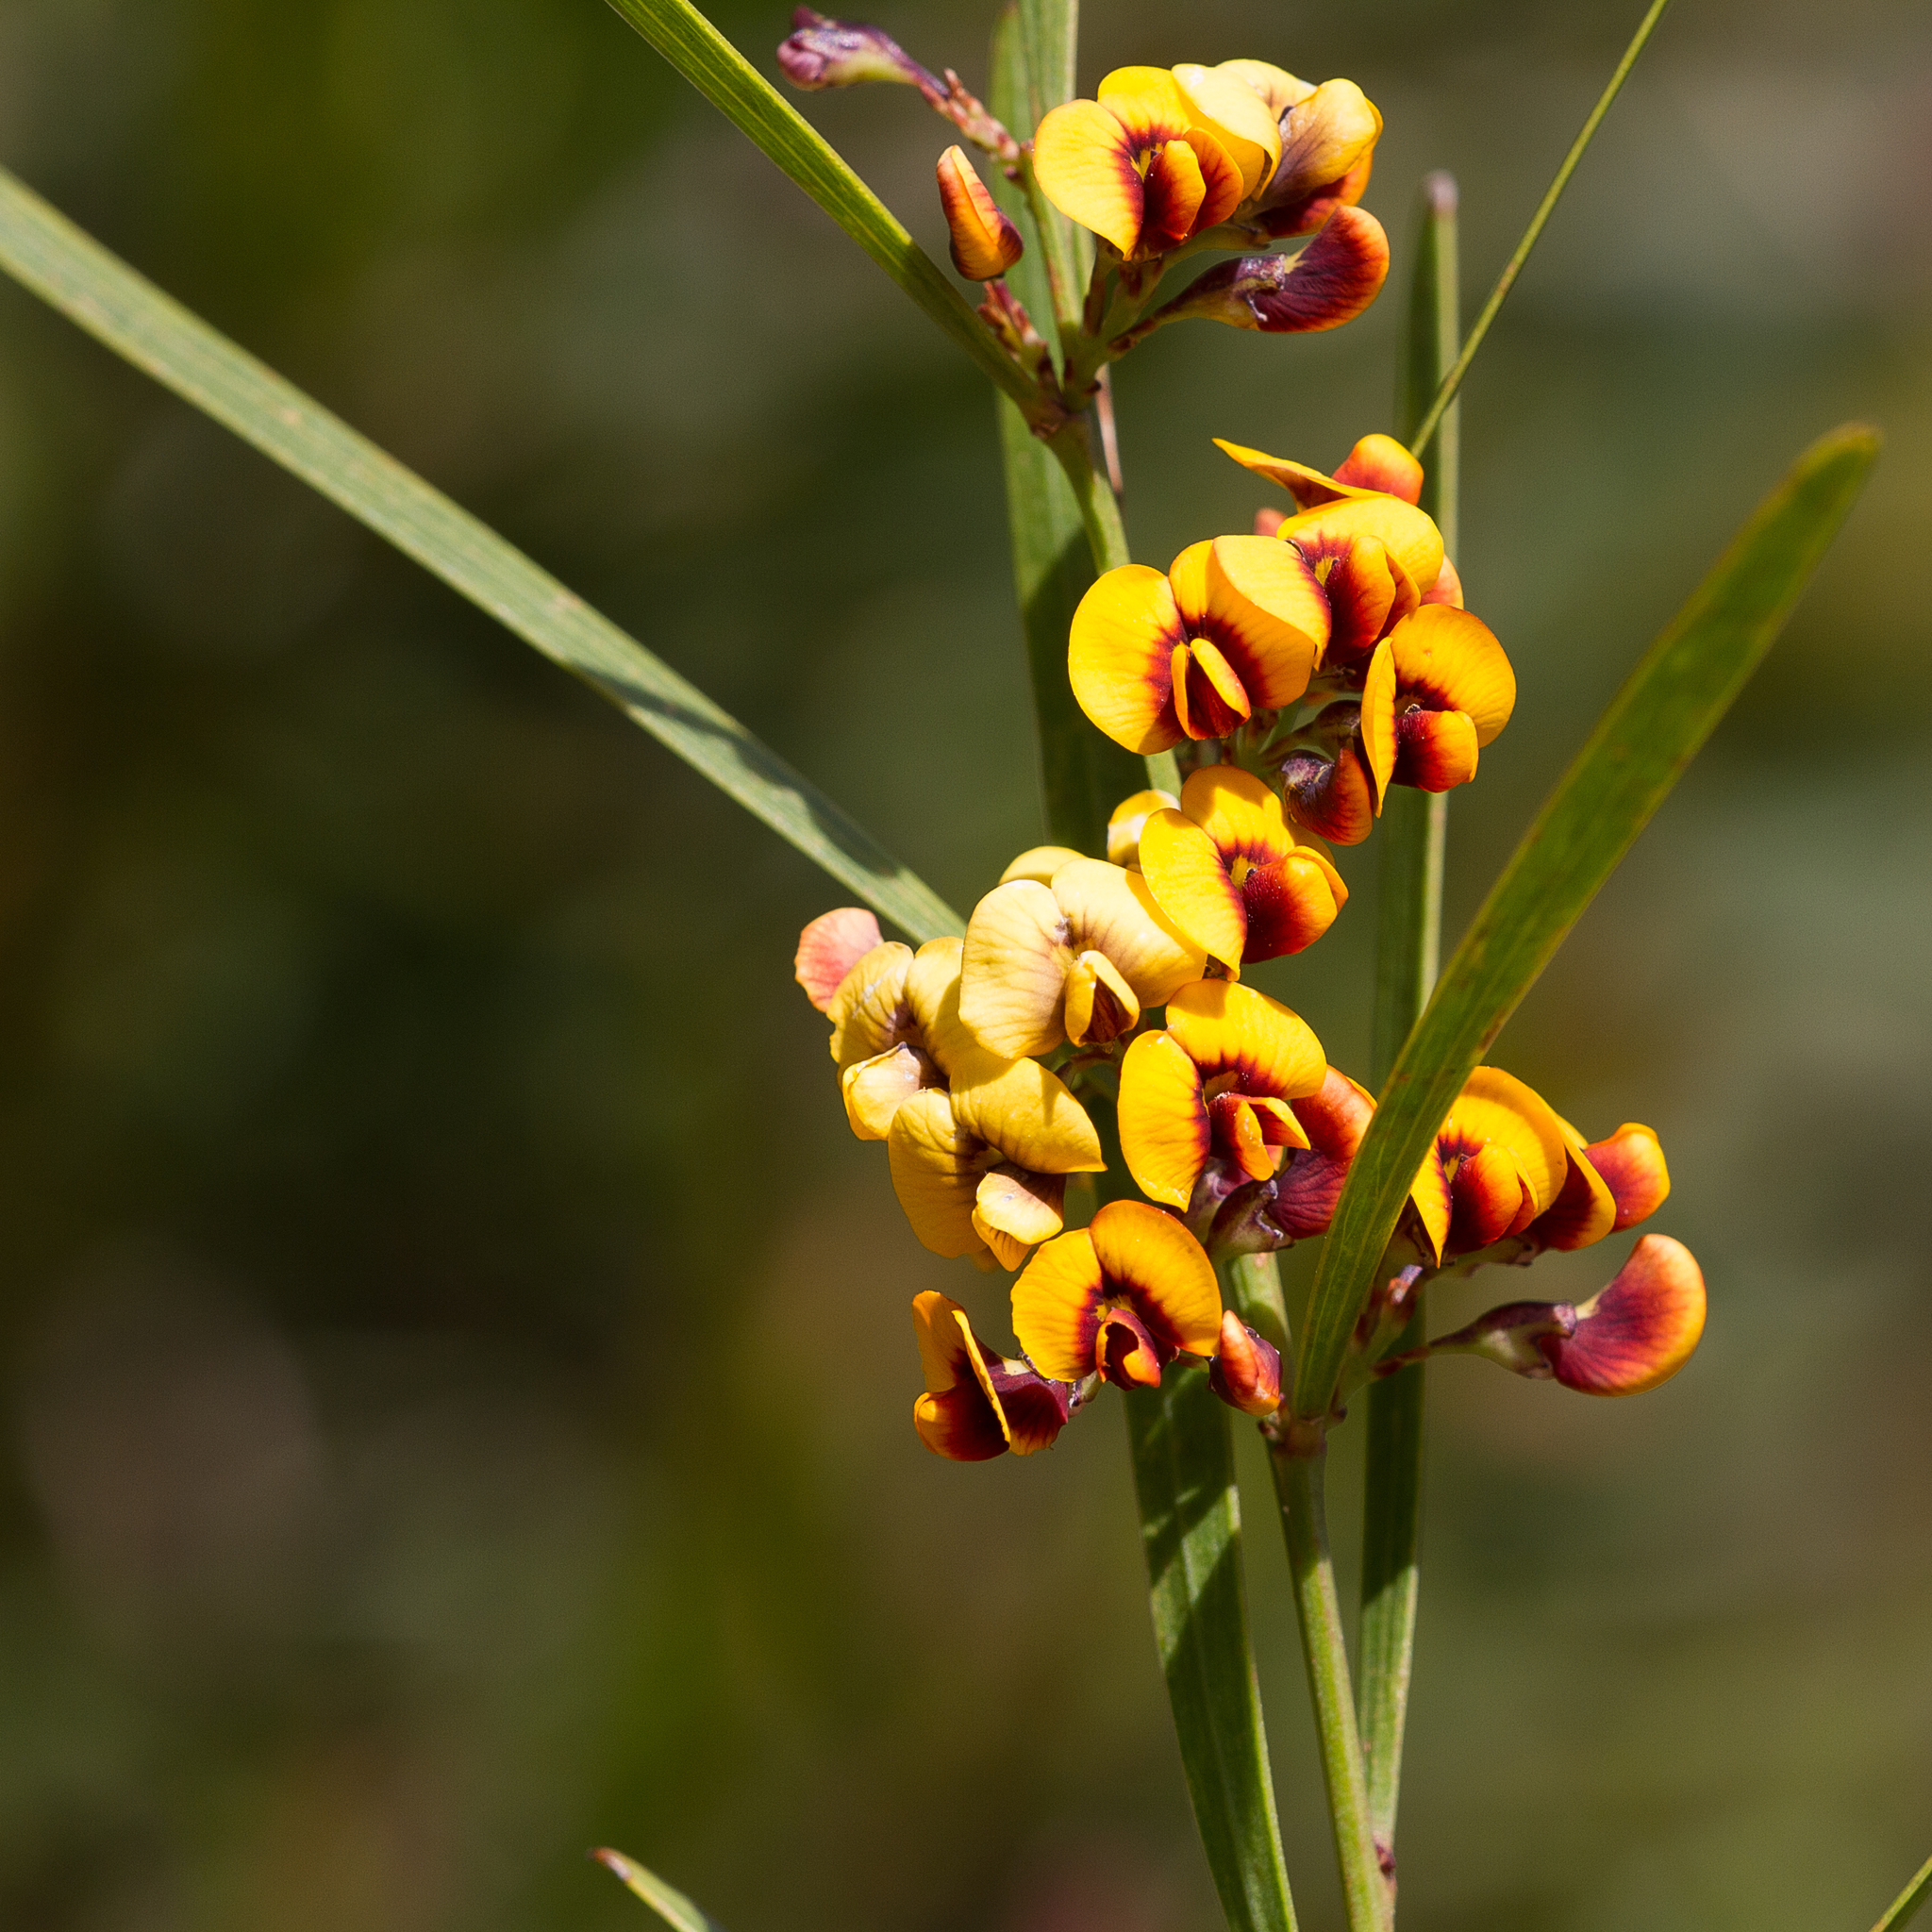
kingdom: Plantae
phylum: Tracheophyta
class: Magnoliopsida
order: Fabales
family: Fabaceae
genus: Daviesia
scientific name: Daviesia leptophylla
